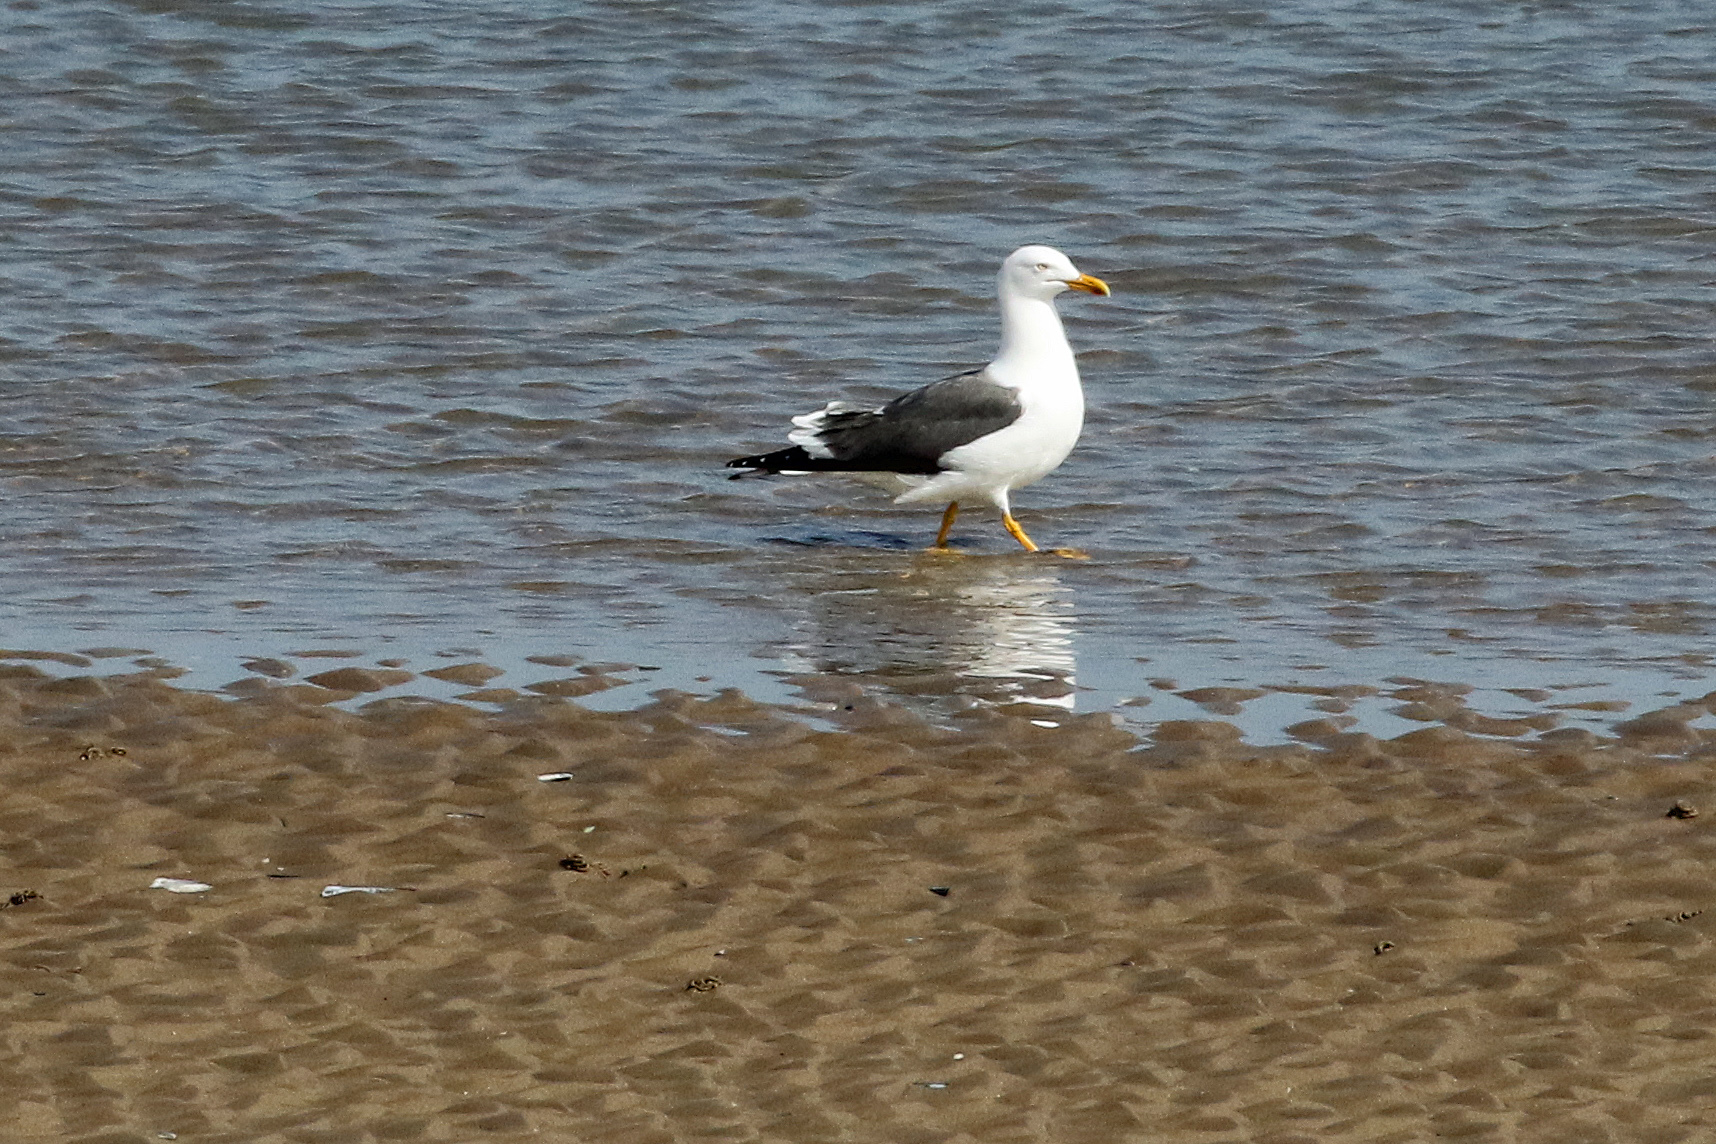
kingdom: Animalia
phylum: Chordata
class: Aves
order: Charadriiformes
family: Laridae
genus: Larus
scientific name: Larus fuscus
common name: Lesser black-backed gull
